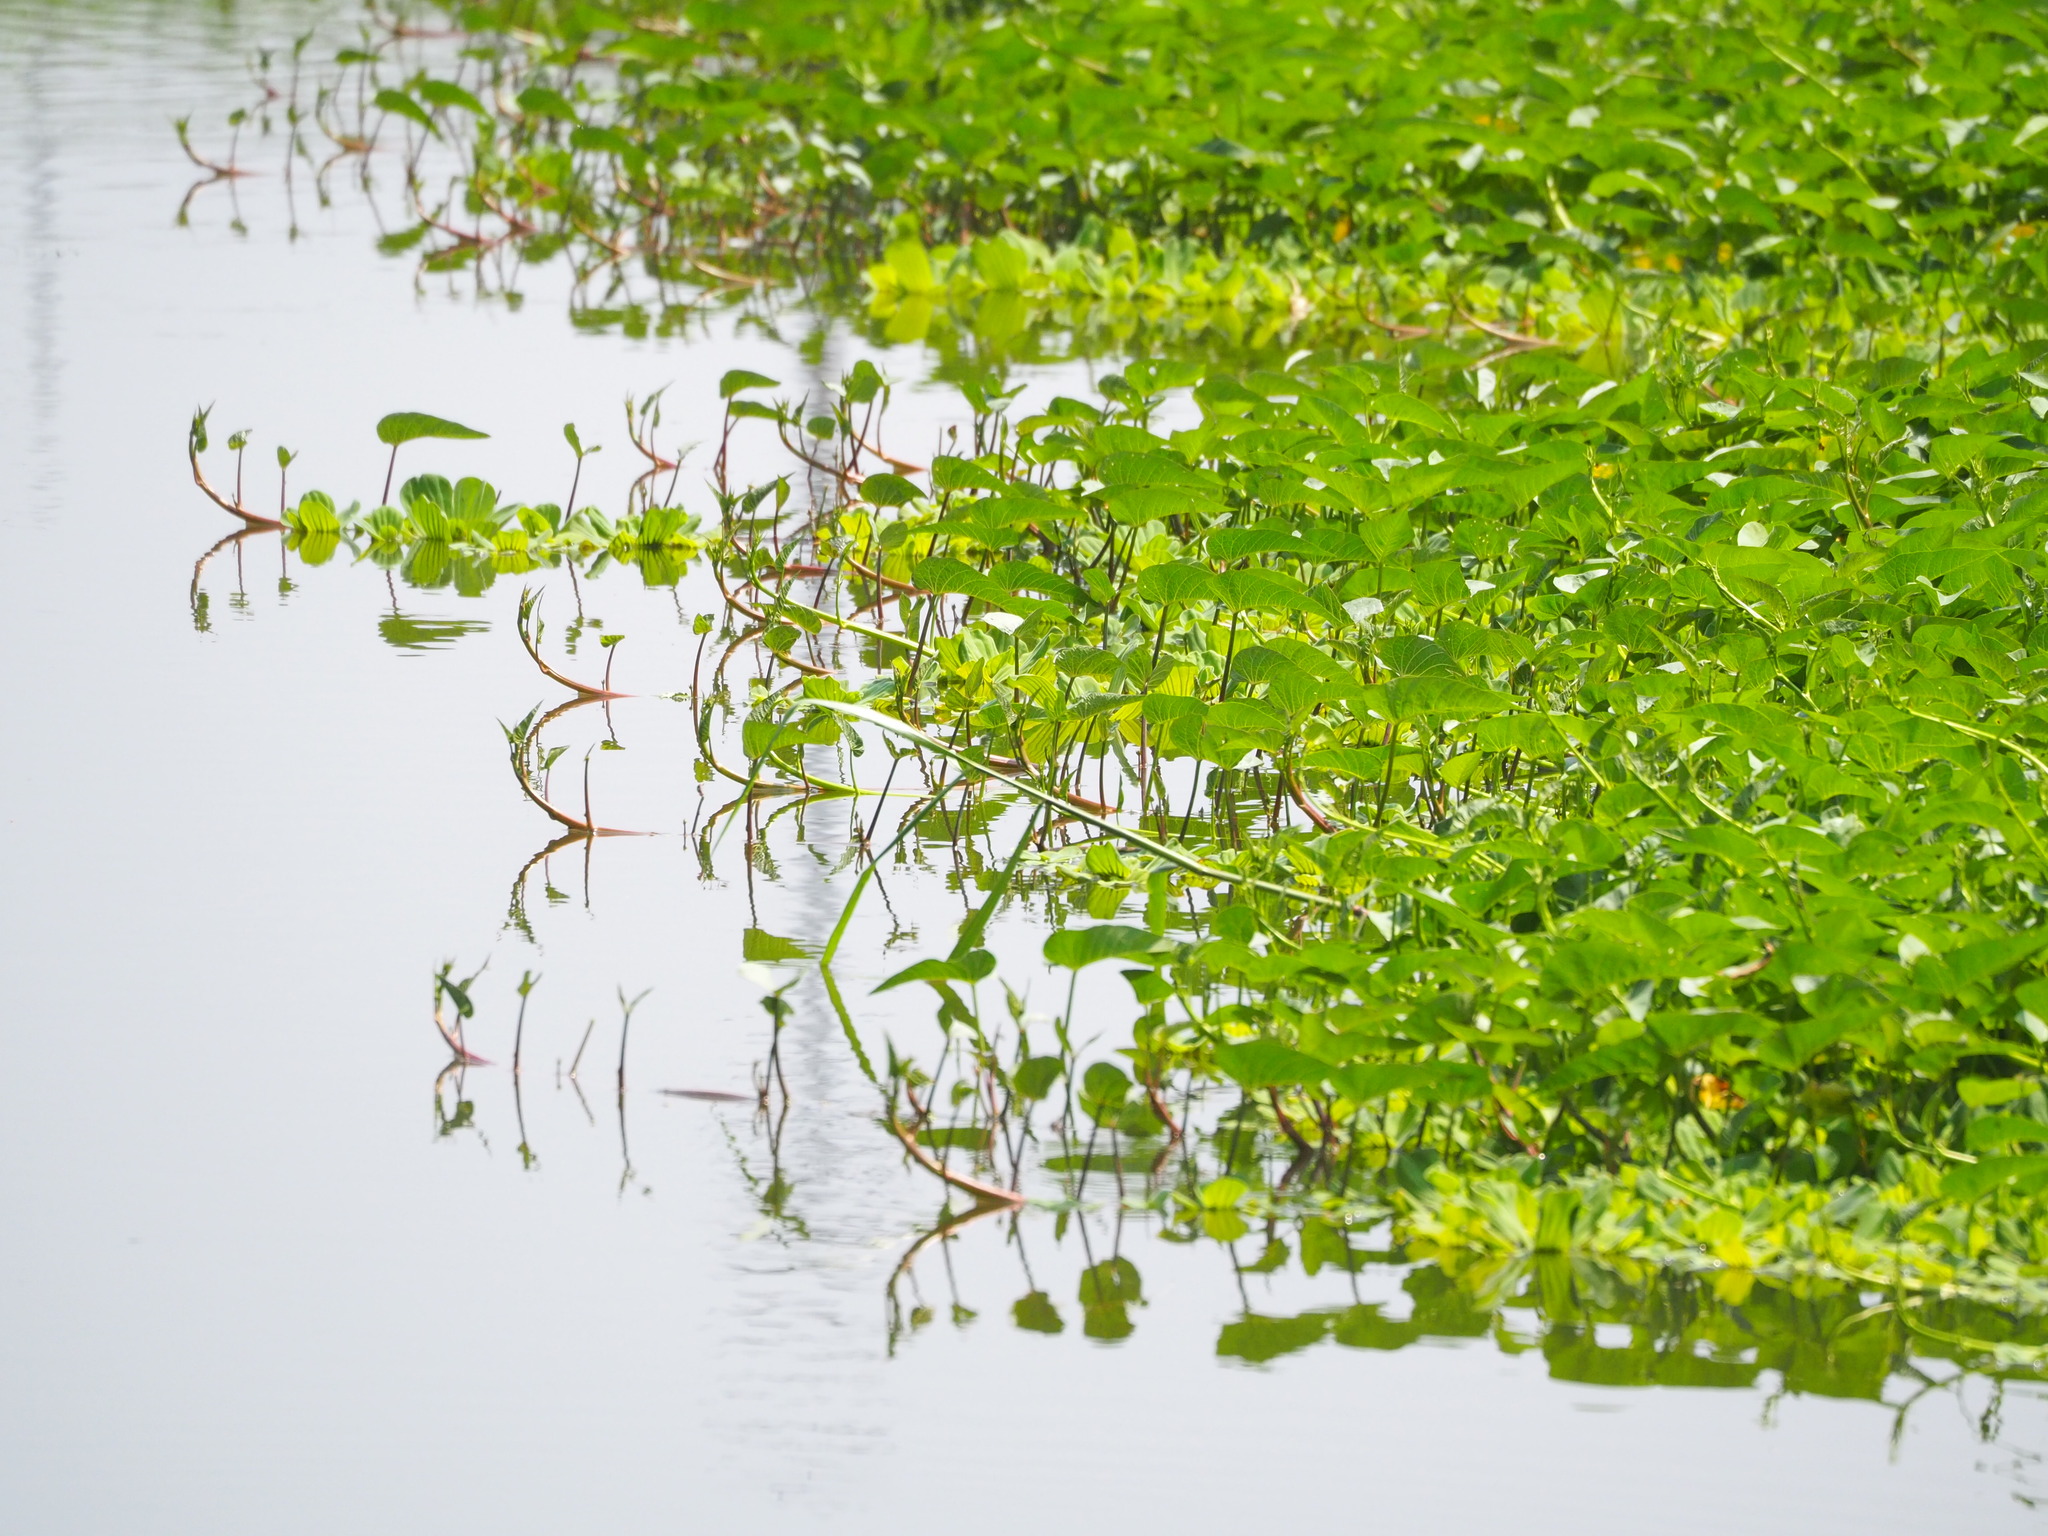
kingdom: Plantae
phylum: Tracheophyta
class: Magnoliopsida
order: Solanales
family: Convolvulaceae
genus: Ipomoea
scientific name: Ipomoea aquatica
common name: Swamp morning-glory
